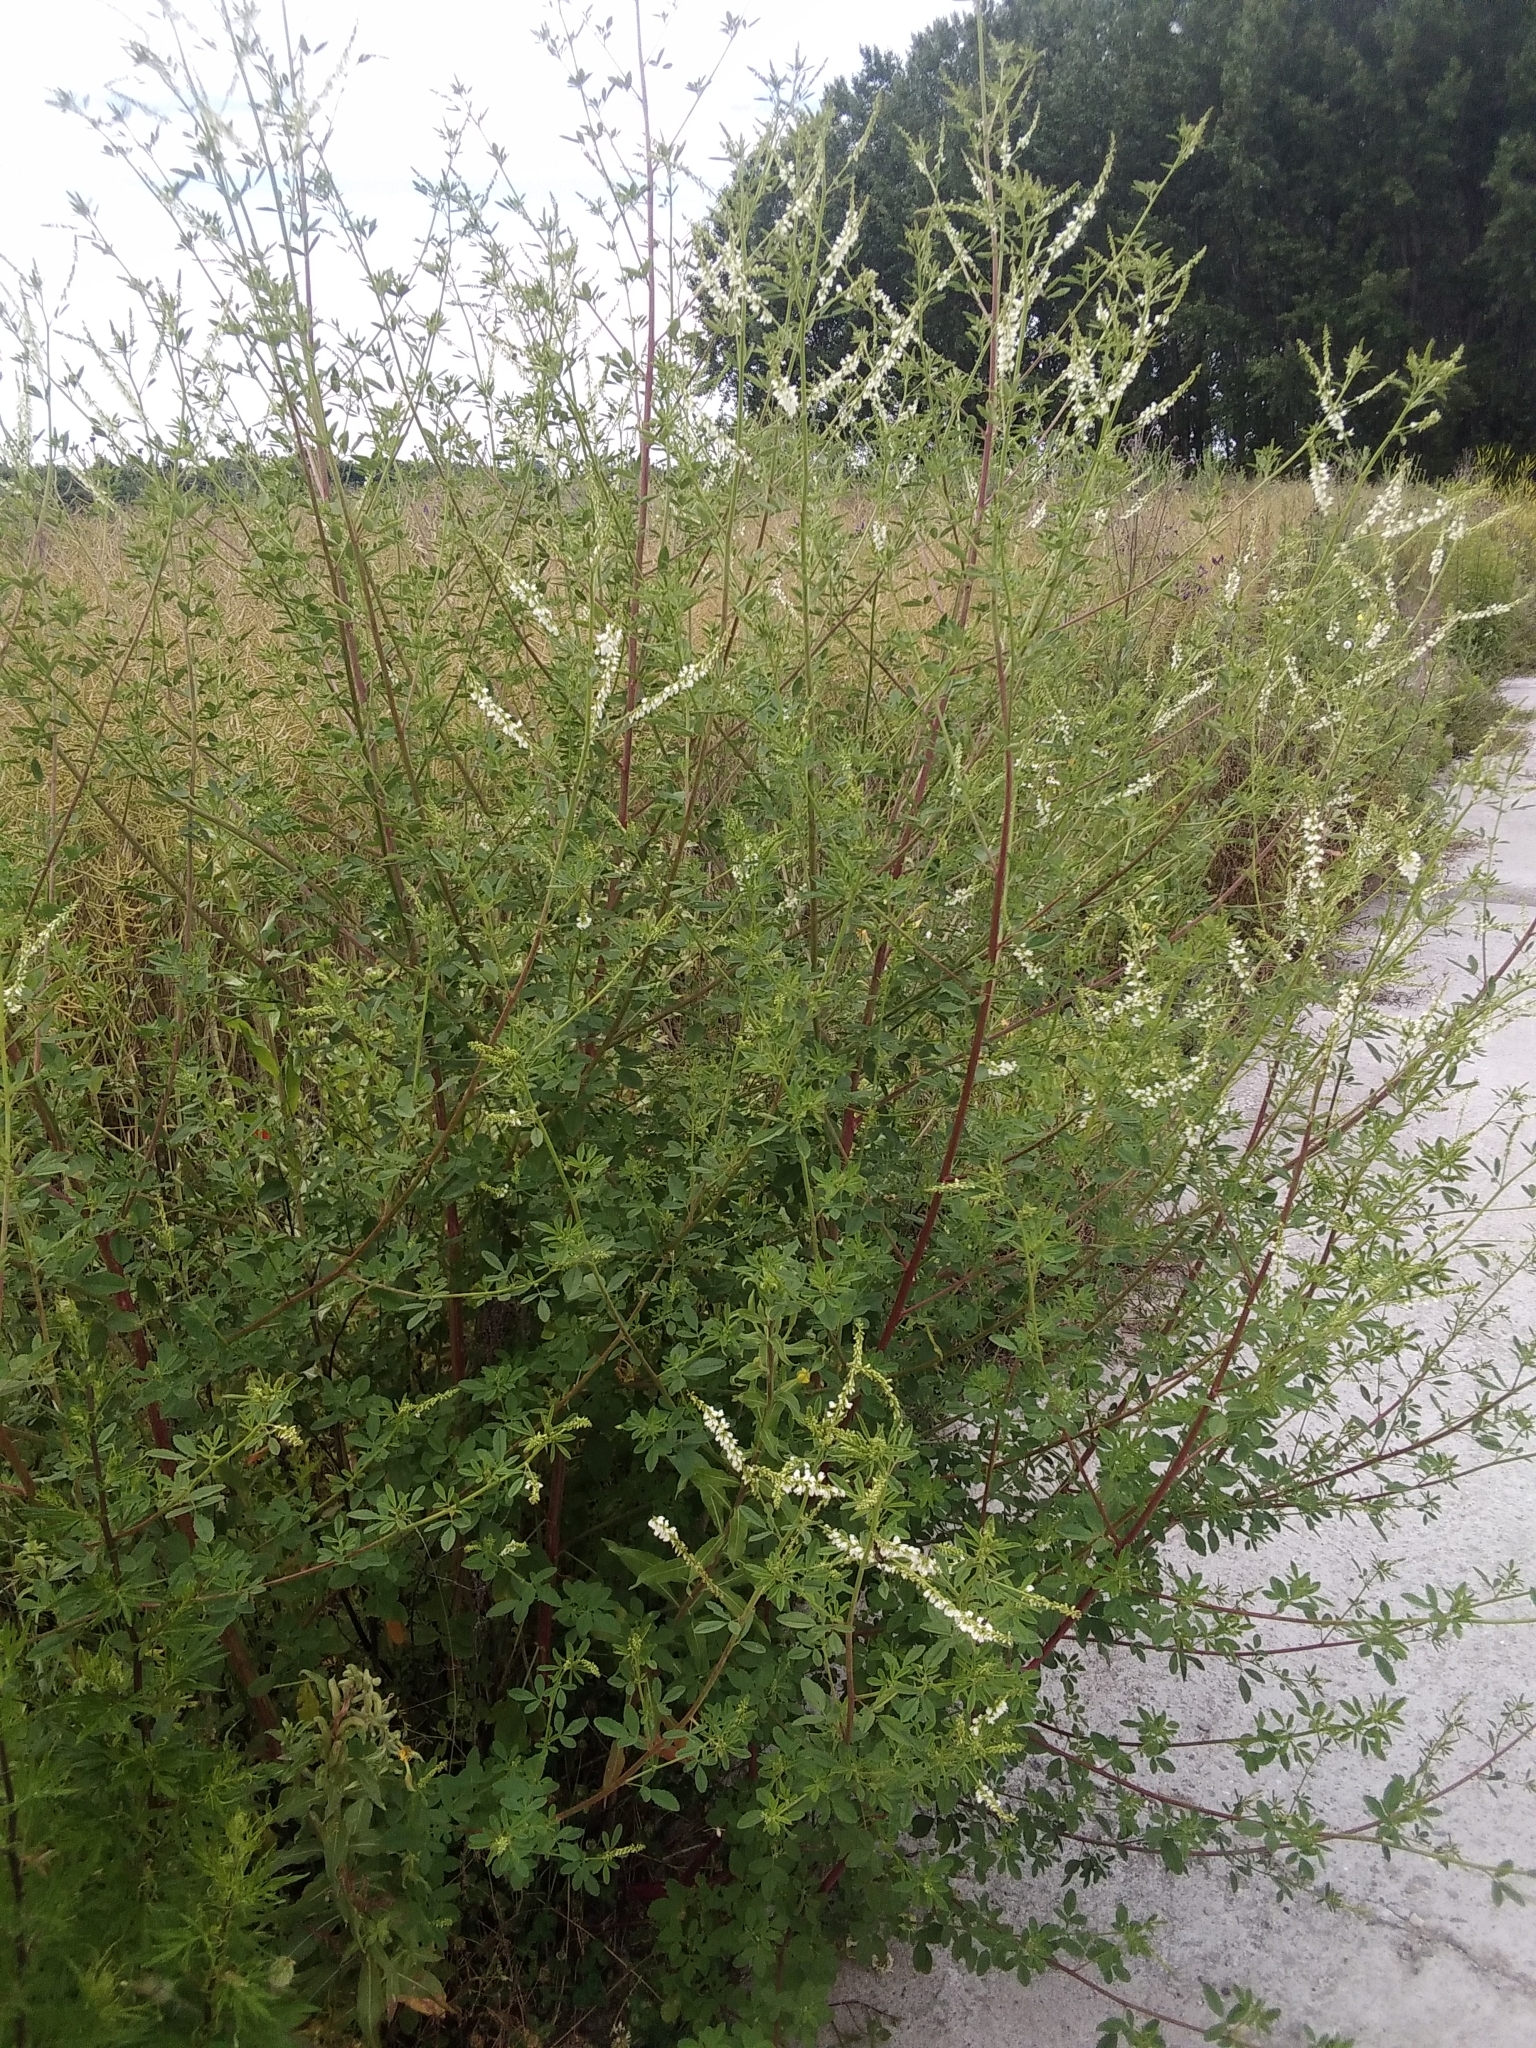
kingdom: Plantae
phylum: Tracheophyta
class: Magnoliopsida
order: Fabales
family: Fabaceae
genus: Melilotus
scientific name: Melilotus albus
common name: White melilot
